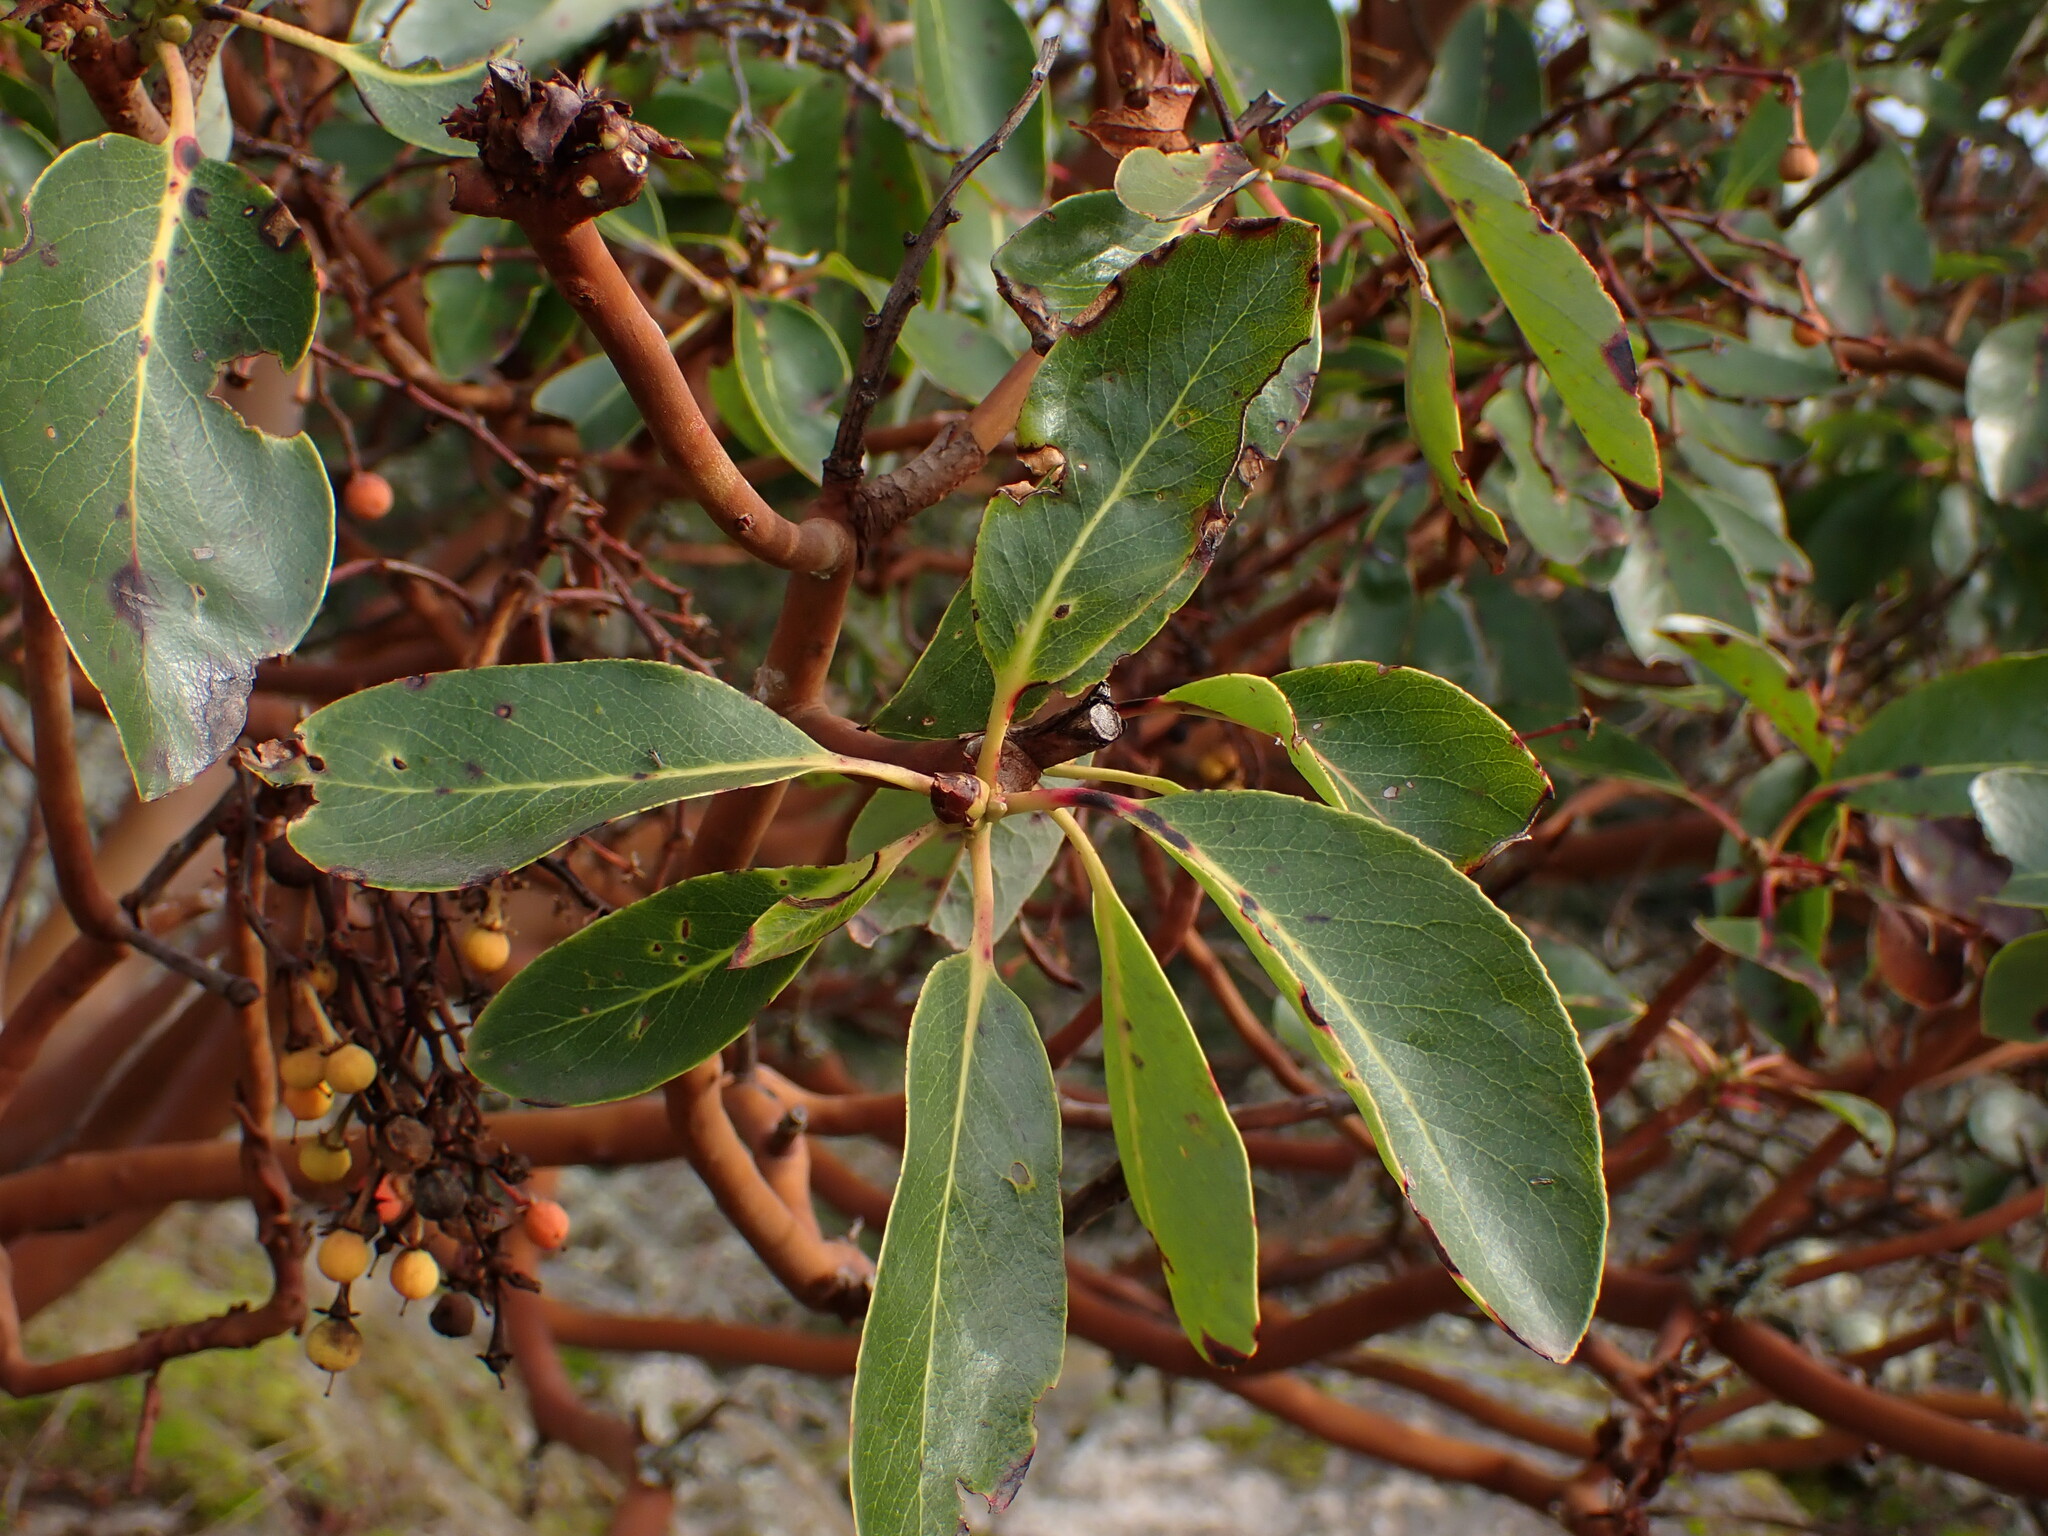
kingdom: Plantae
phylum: Tracheophyta
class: Magnoliopsida
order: Ericales
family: Ericaceae
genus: Arbutus
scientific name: Arbutus menziesii
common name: Pacific madrone
